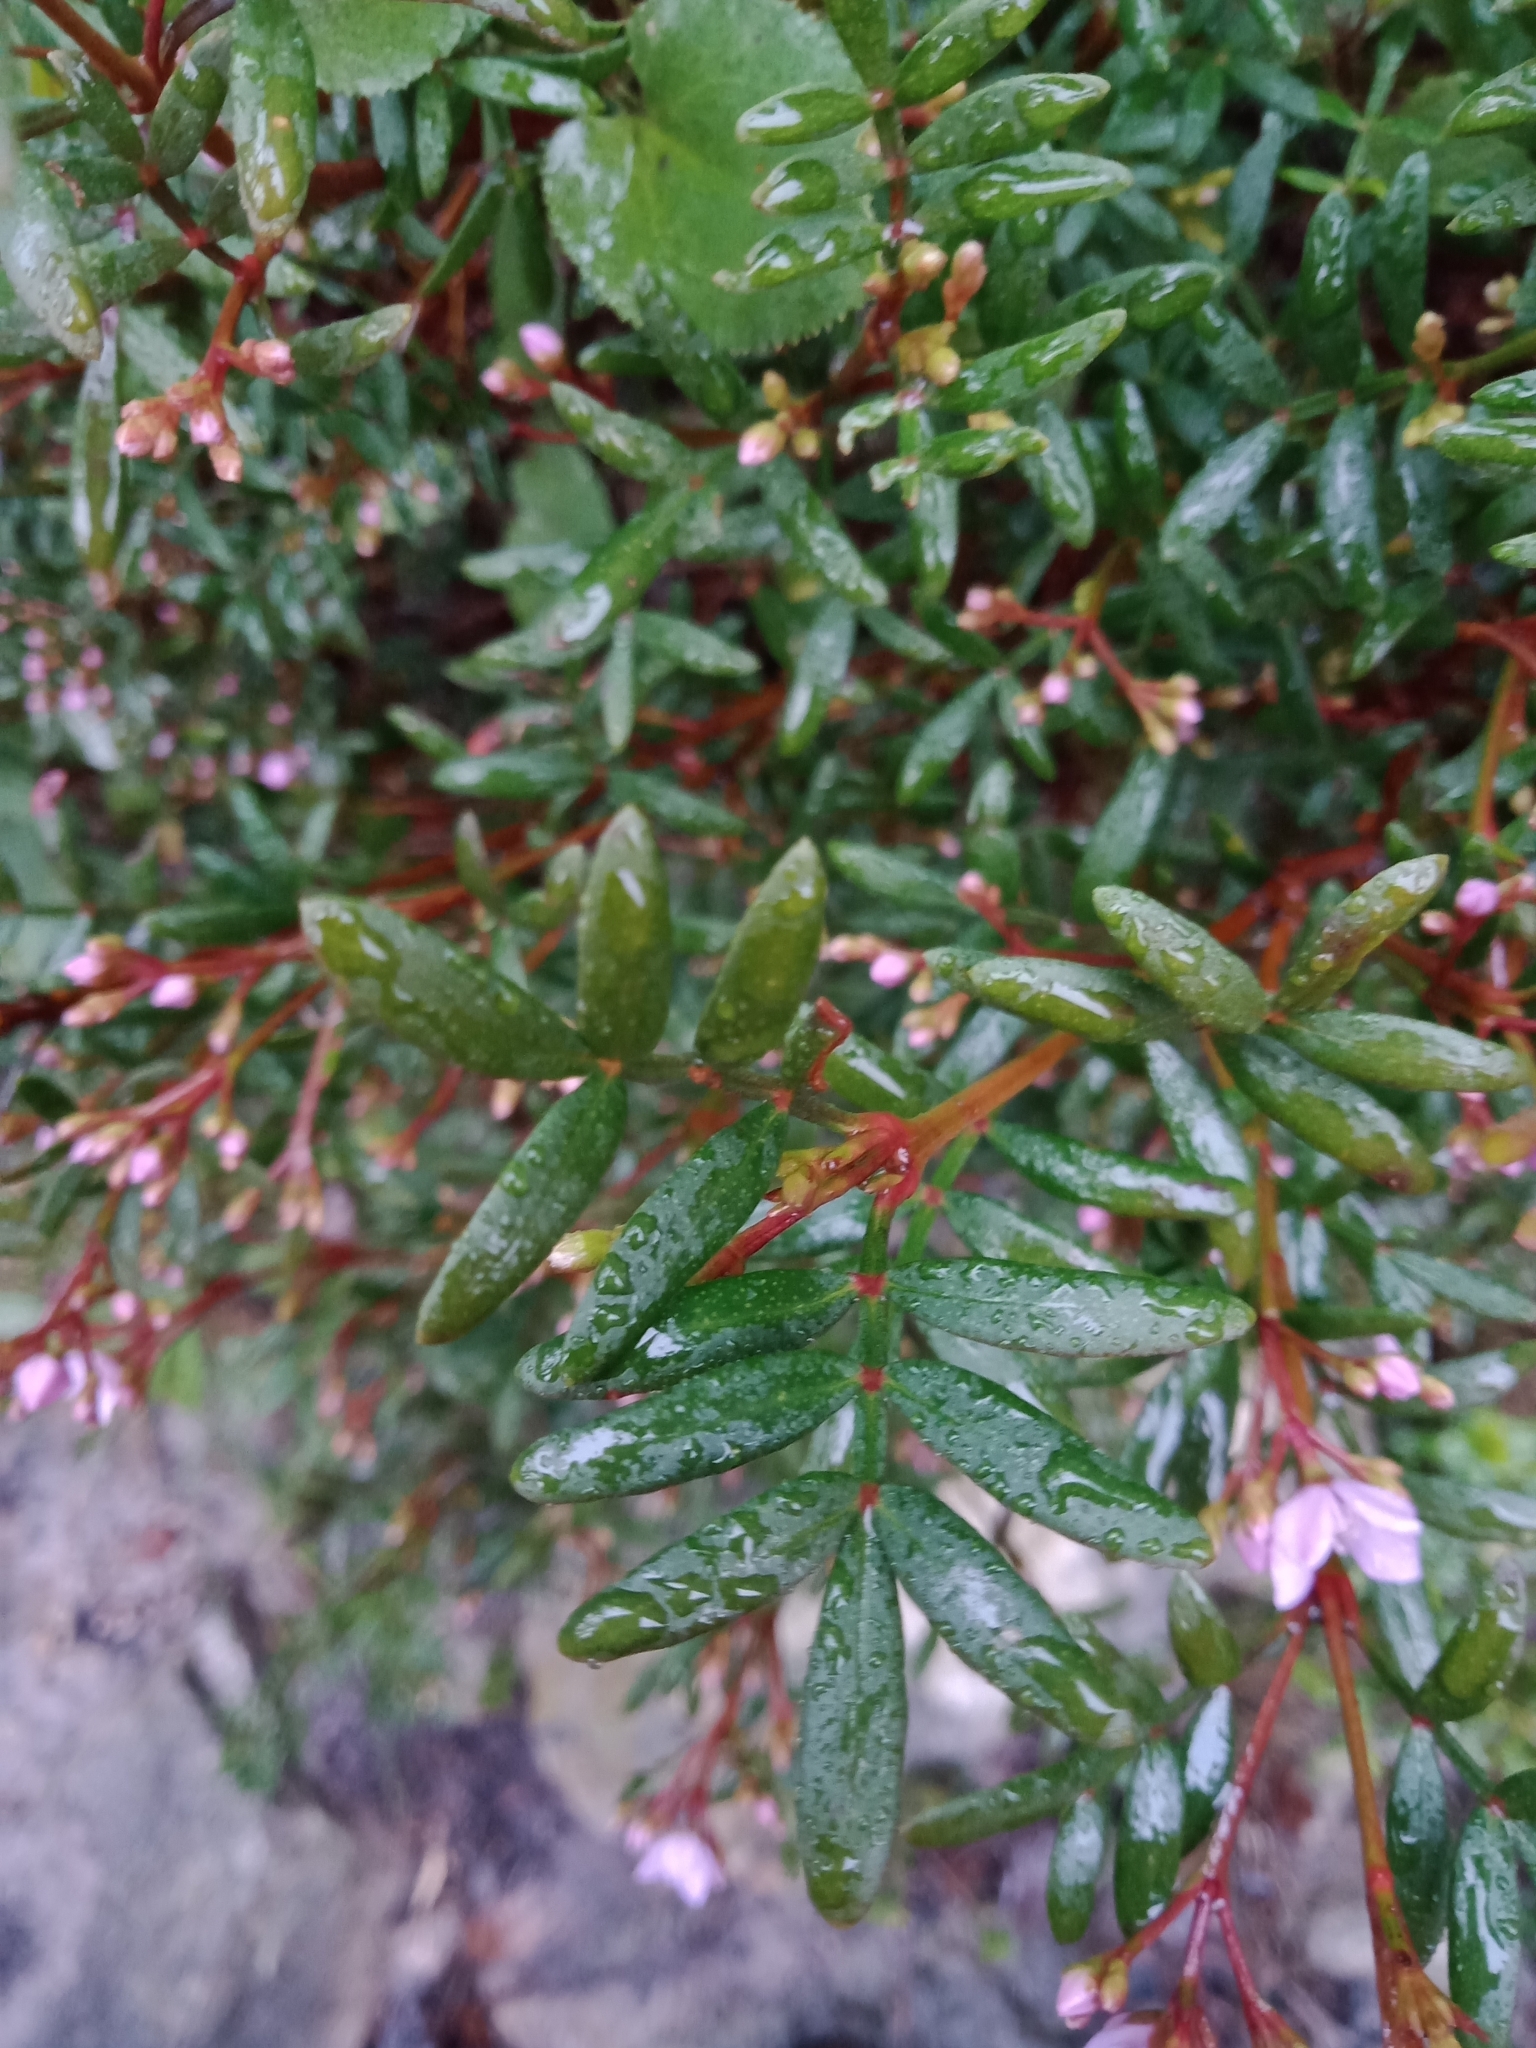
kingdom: Plantae
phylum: Tracheophyta
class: Magnoliopsida
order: Sapindales
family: Rutaceae
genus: Boronia
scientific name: Boronia latipinna
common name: Grampians boronia
